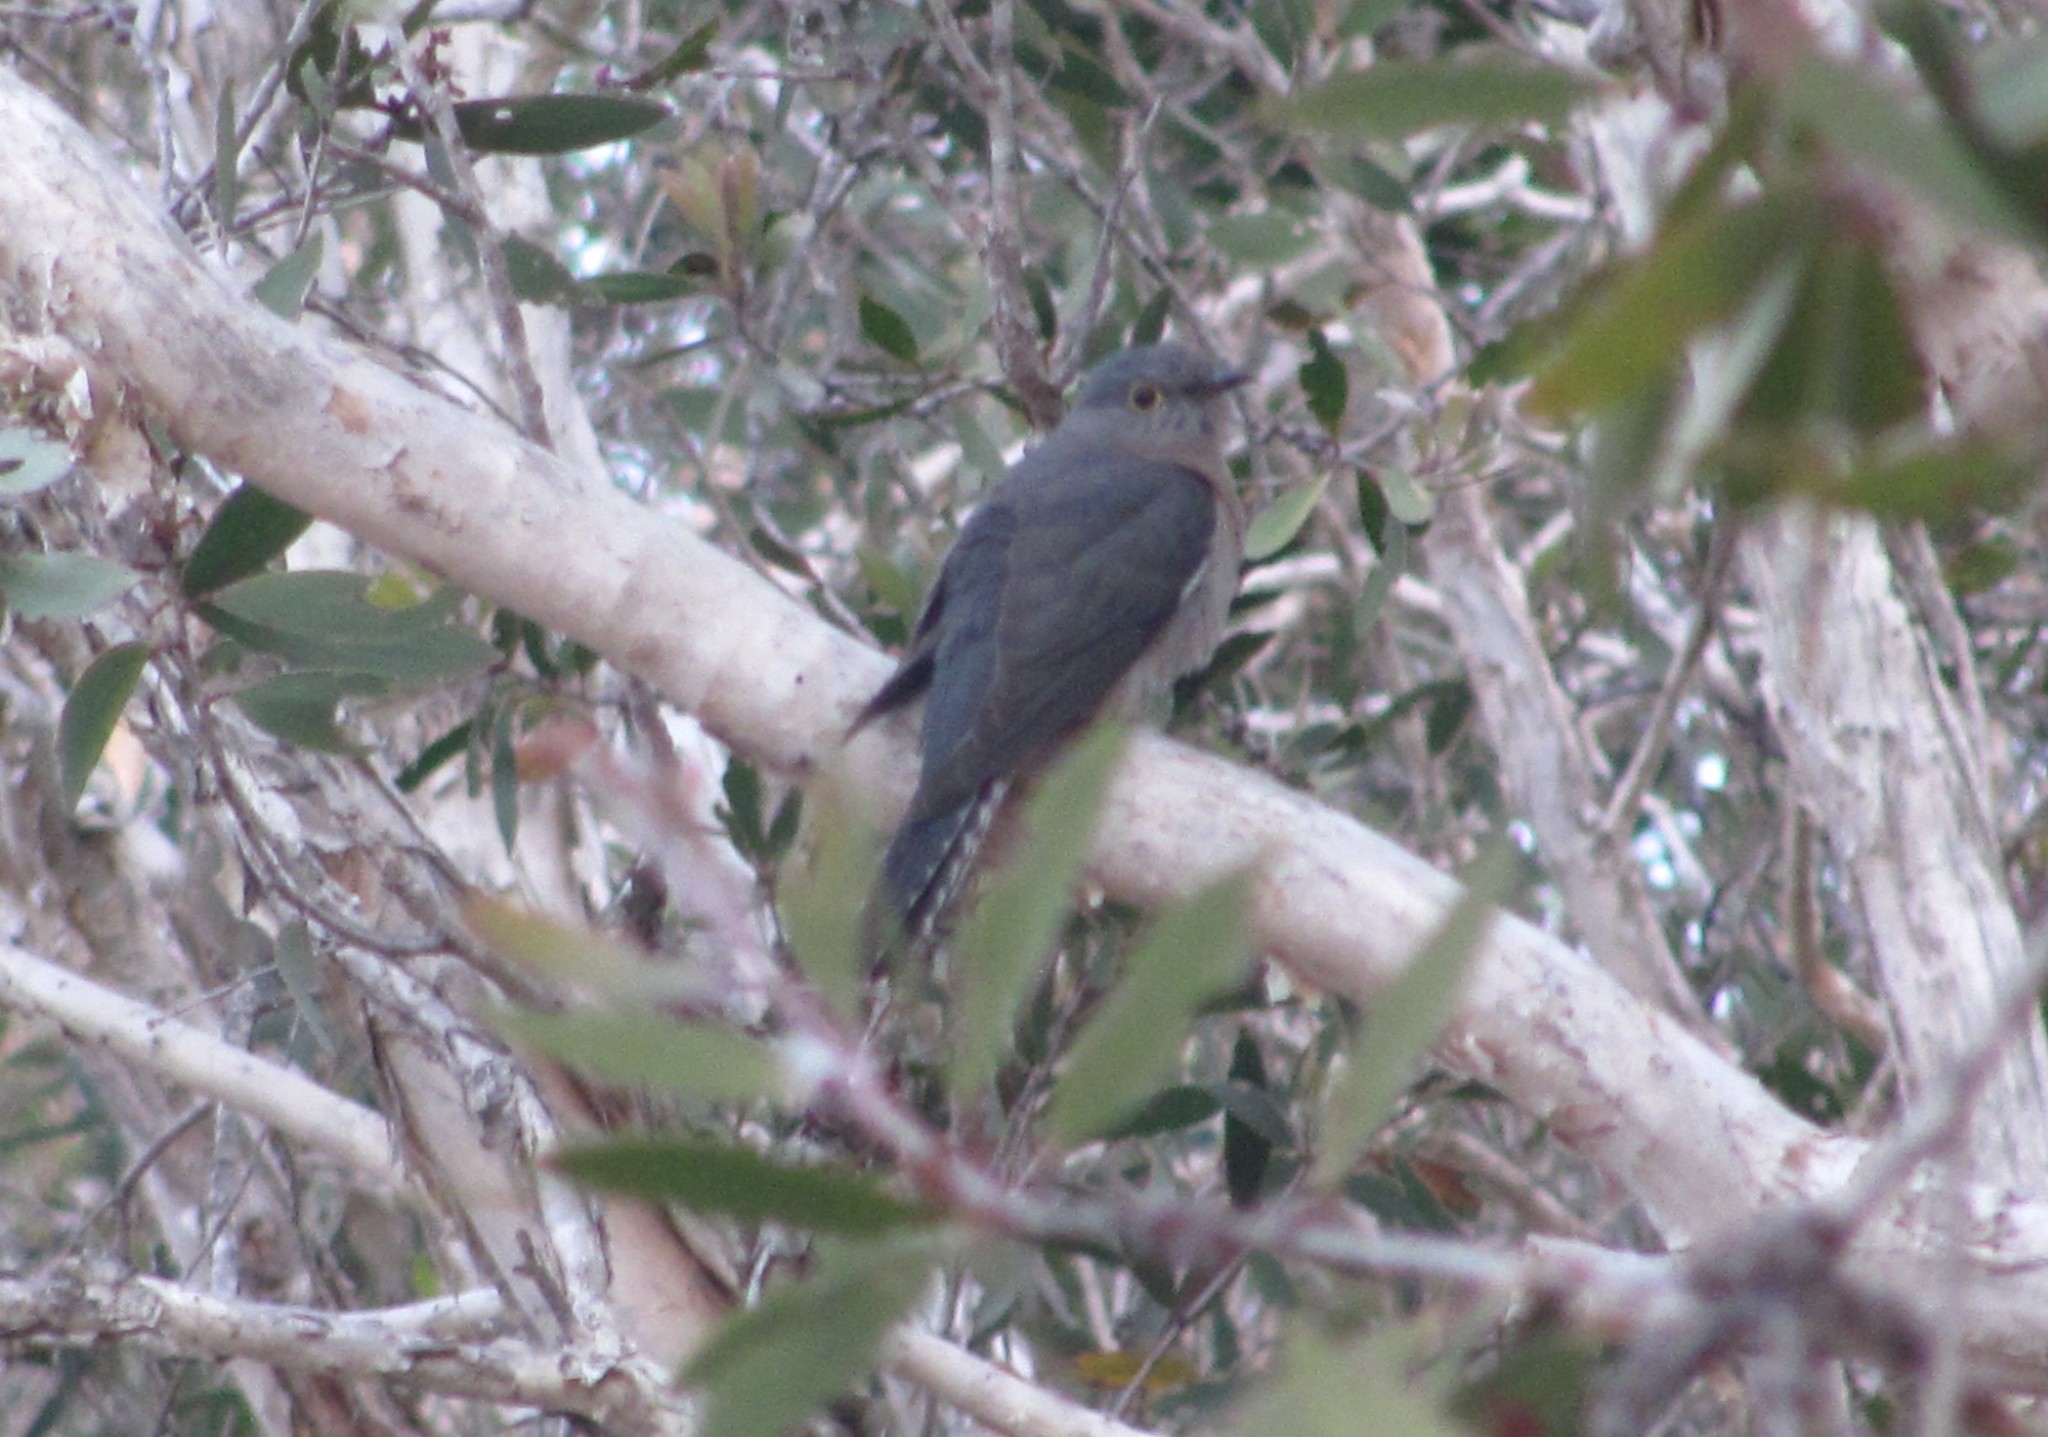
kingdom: Animalia
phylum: Chordata
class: Aves
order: Cuculiformes
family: Cuculidae
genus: Cacomantis
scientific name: Cacomantis flabelliformis
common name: Fan-tailed cuckoo
